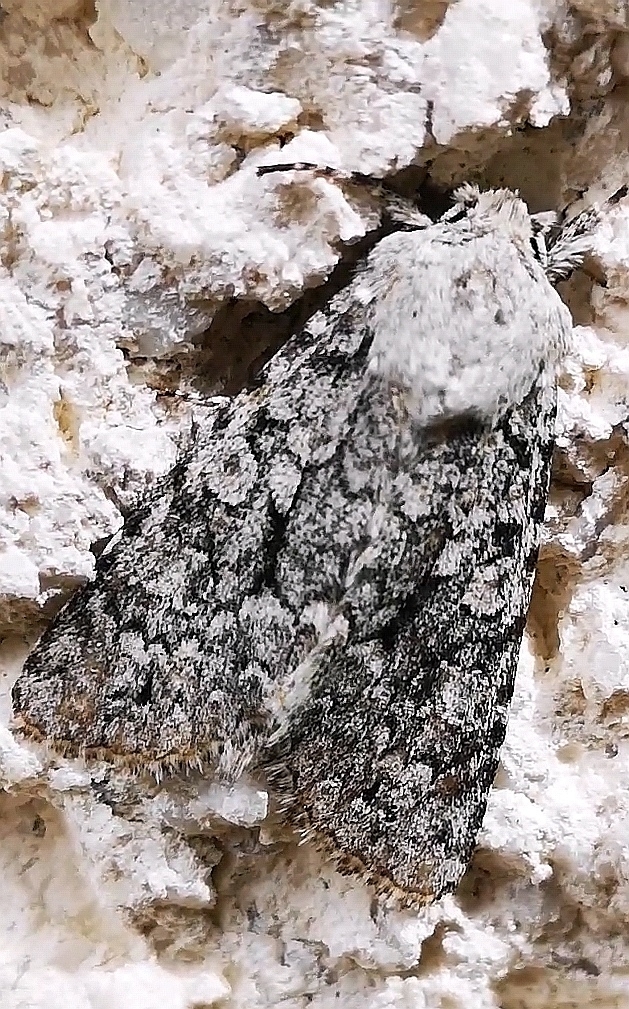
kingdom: Animalia
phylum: Arthropoda
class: Insecta
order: Lepidoptera
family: Noctuidae
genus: Antitype
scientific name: Antitype chi
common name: Grey chi
